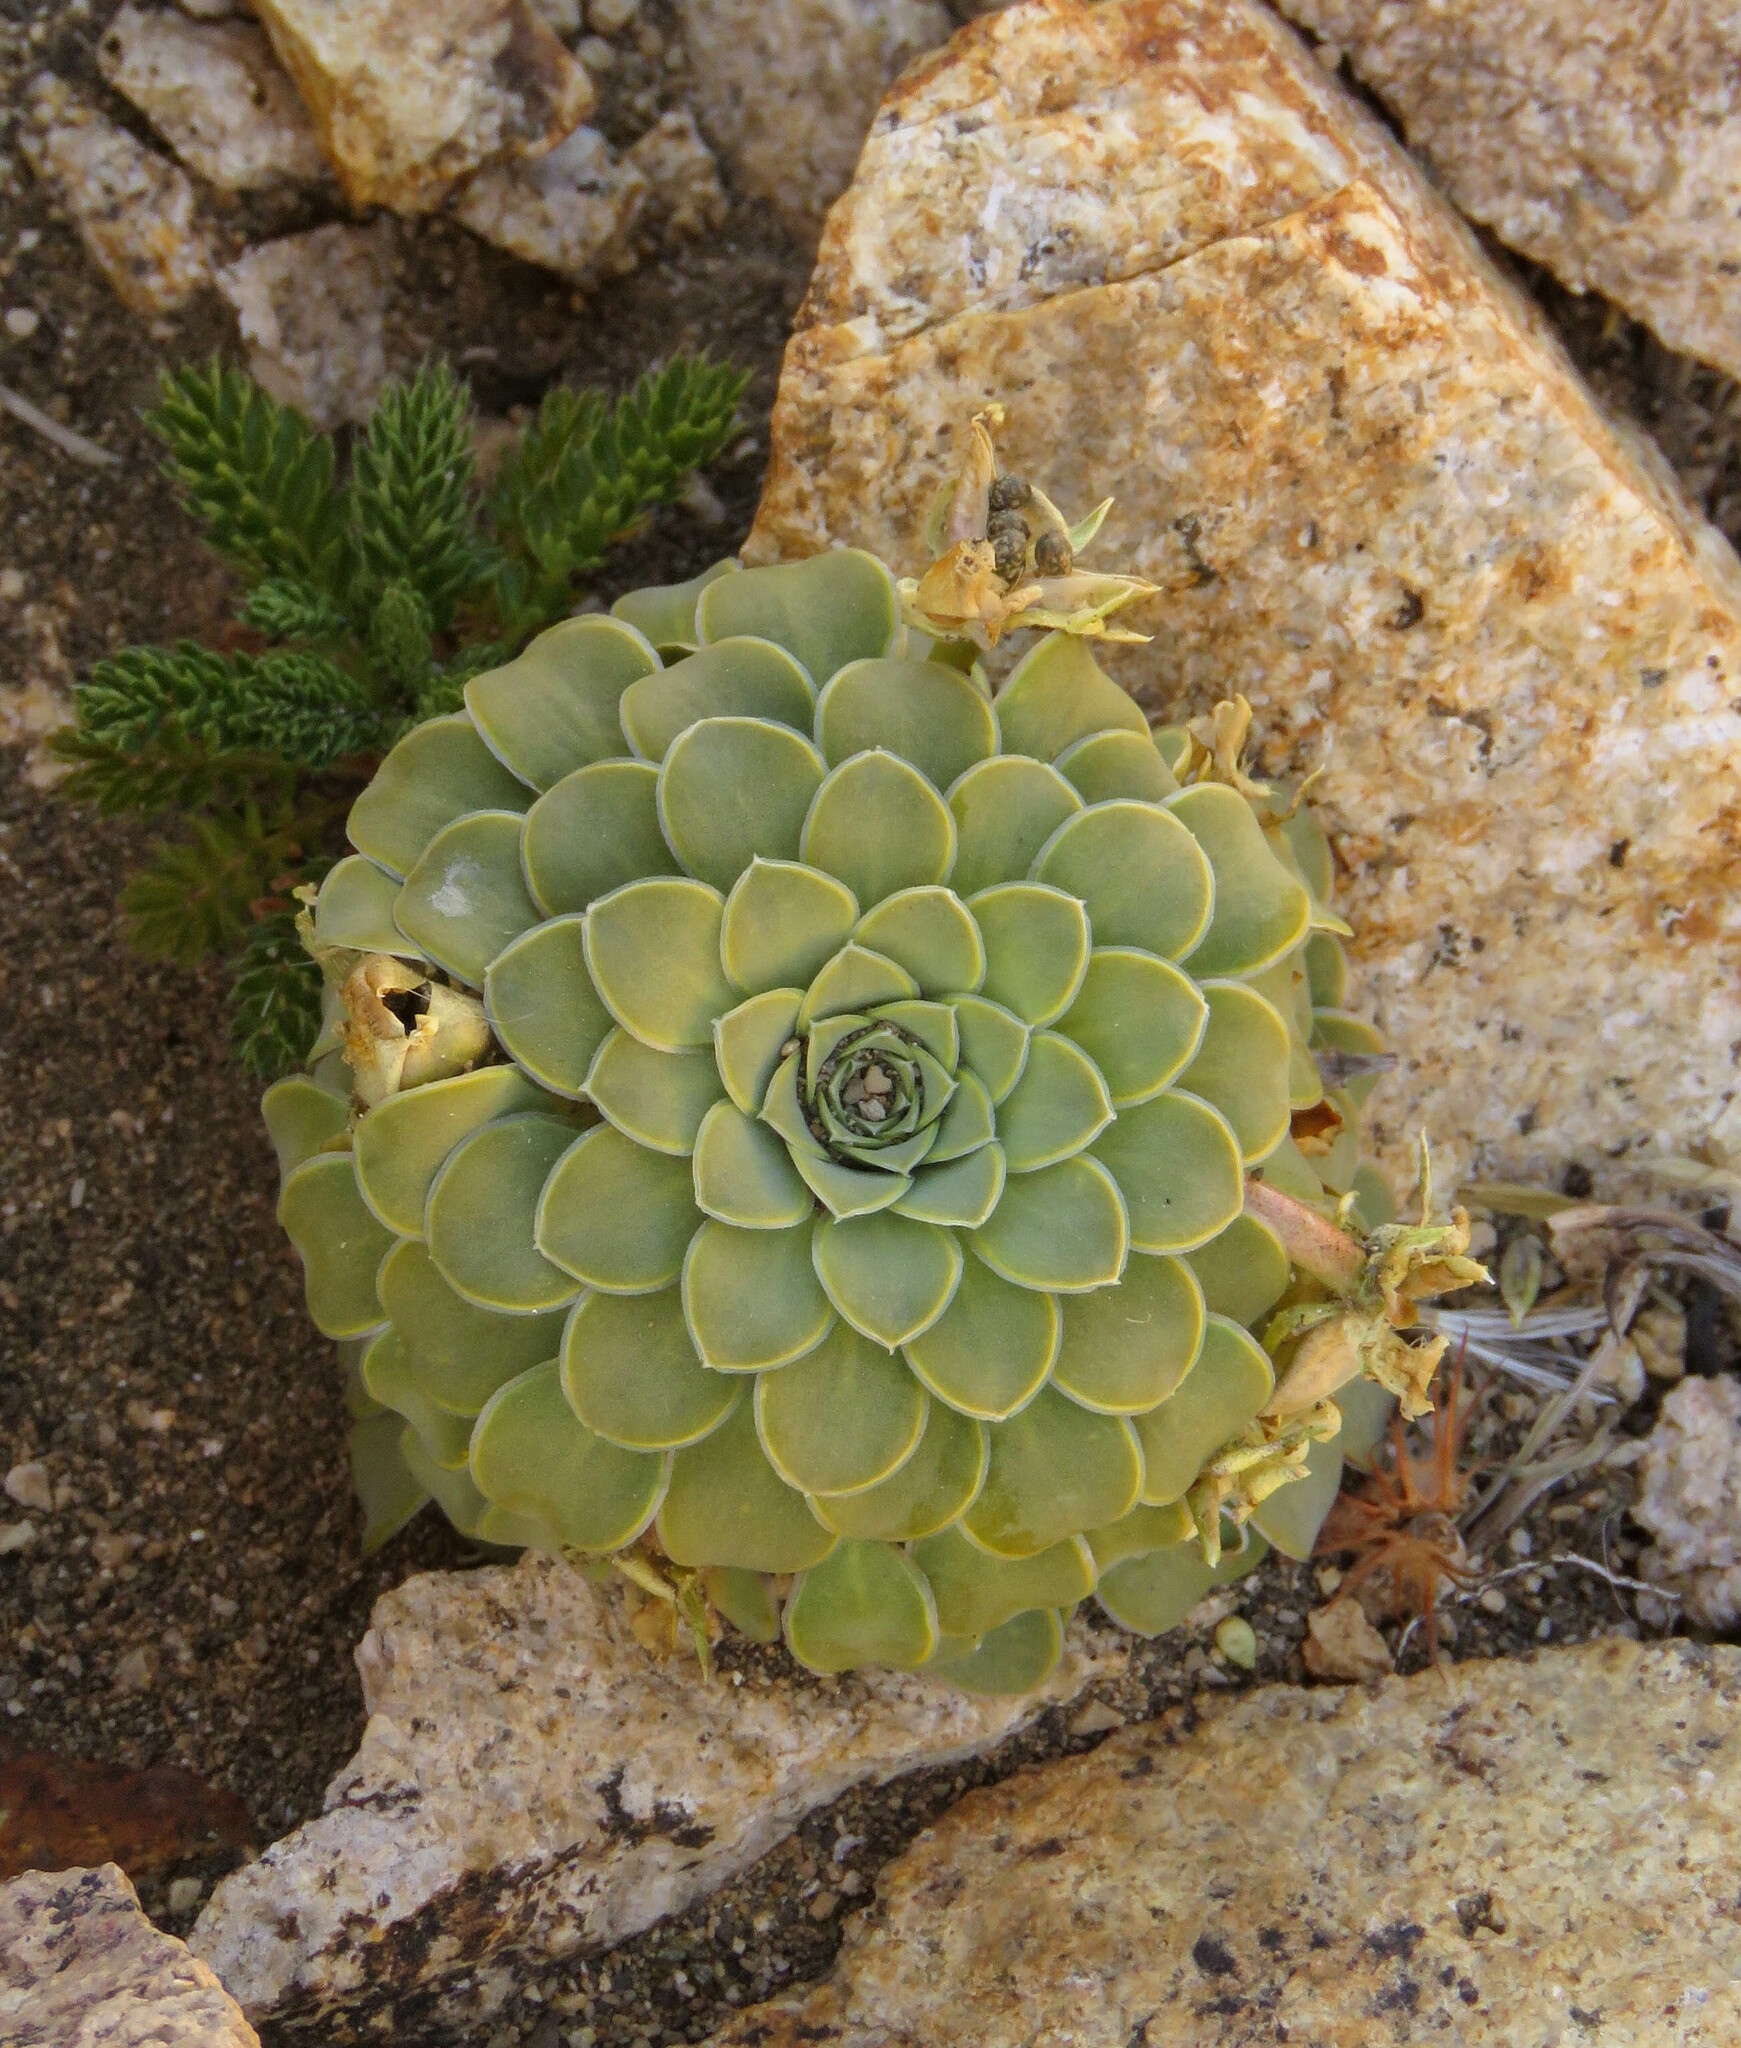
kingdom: Plantae
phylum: Tracheophyta
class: Magnoliopsida
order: Malpighiales
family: Violaceae
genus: Viola
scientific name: Viola petraea
